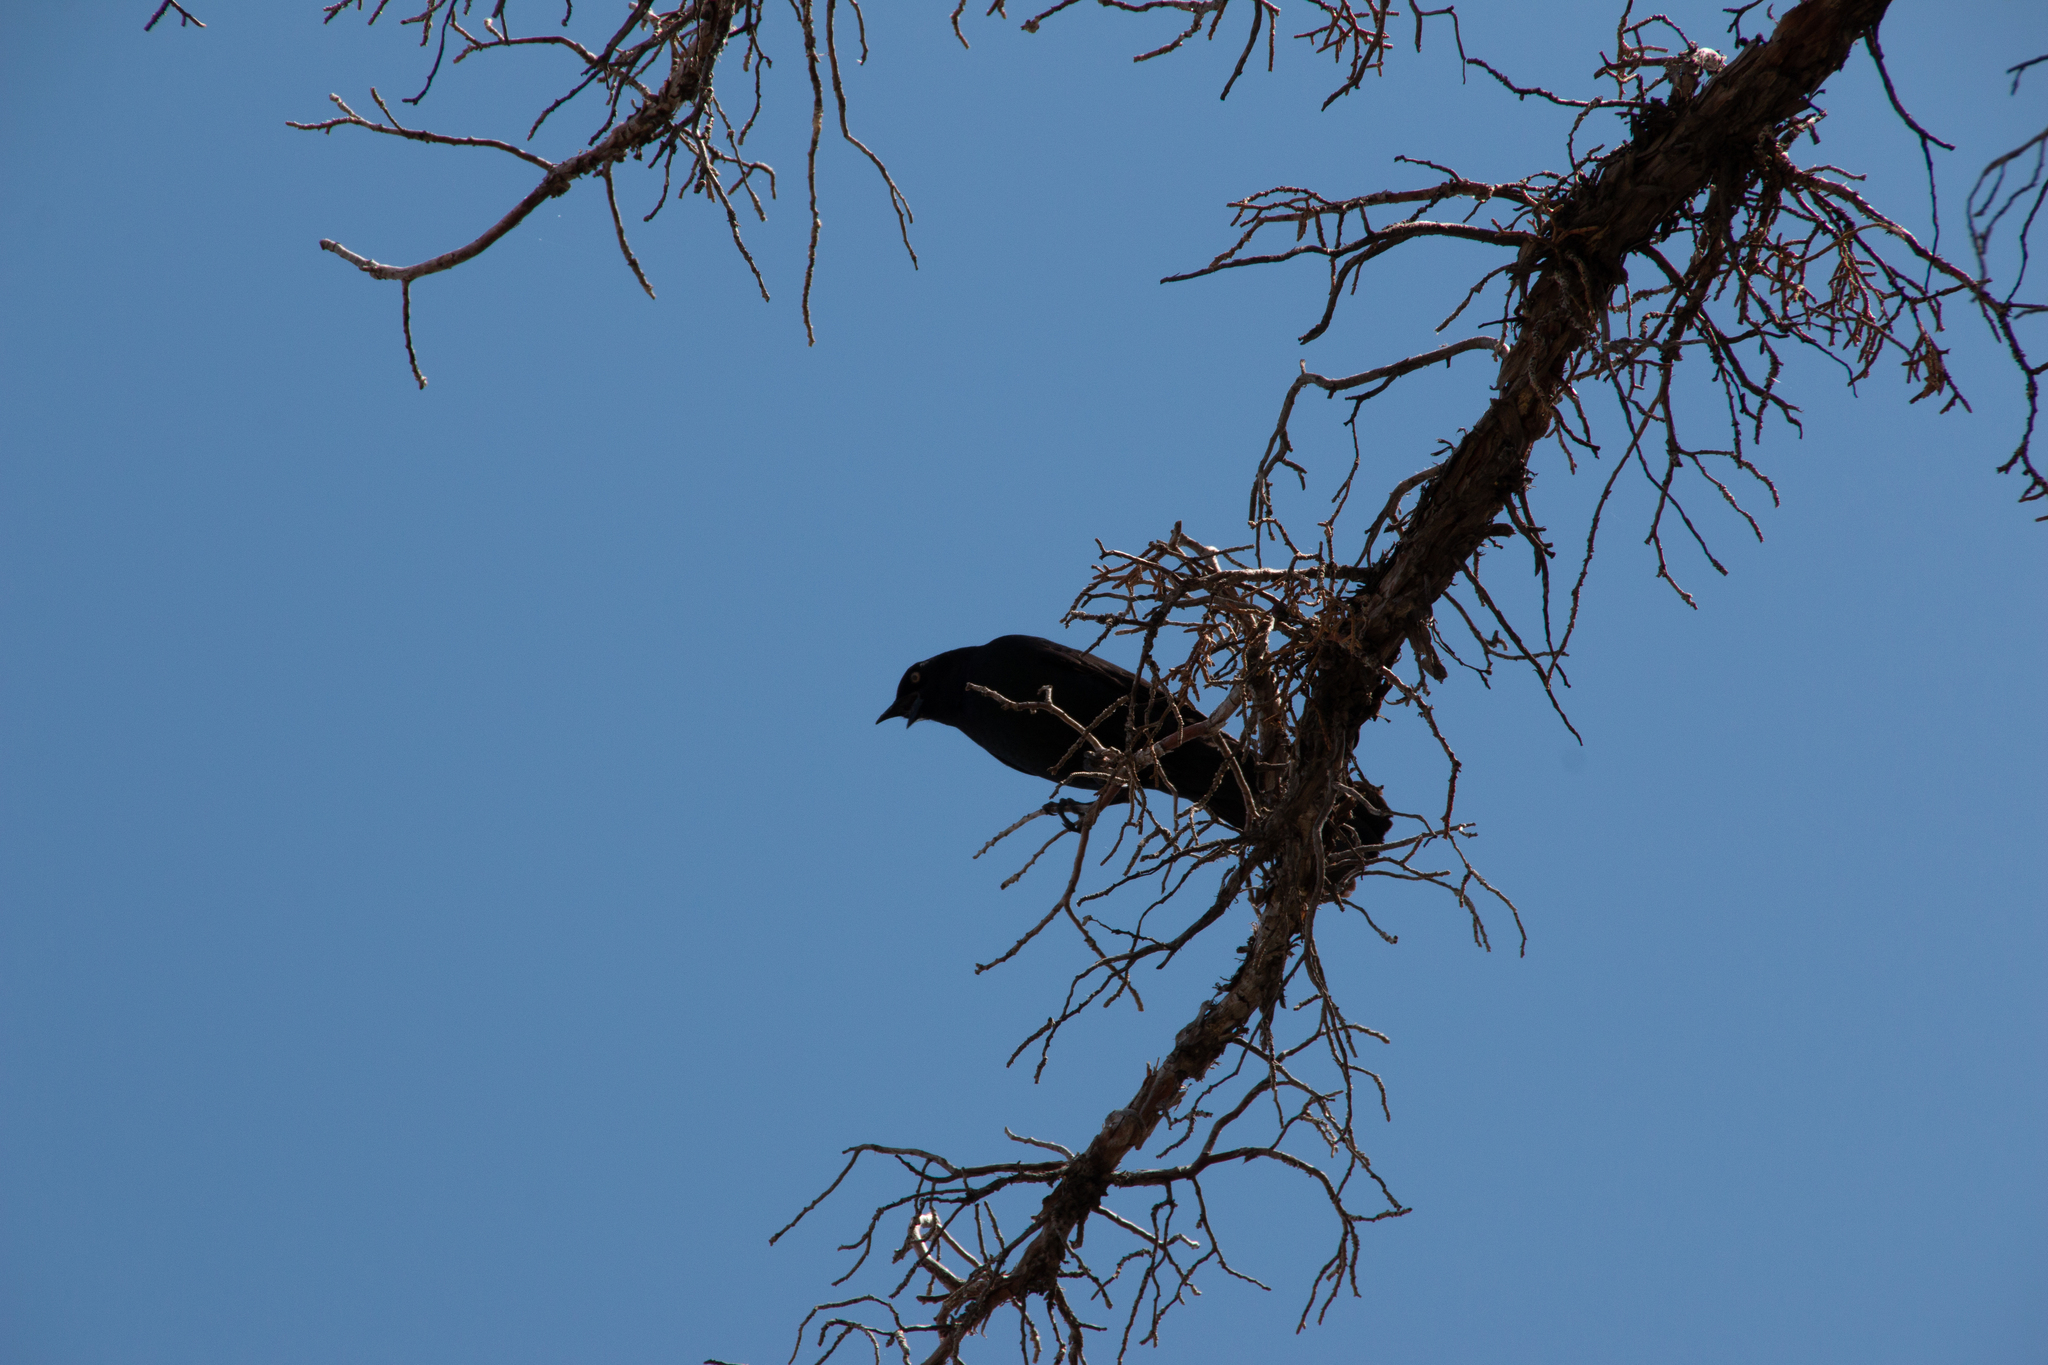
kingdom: Animalia
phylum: Chordata
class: Aves
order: Passeriformes
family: Icteridae
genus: Euphagus
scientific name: Euphagus cyanocephalus
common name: Brewer's blackbird
